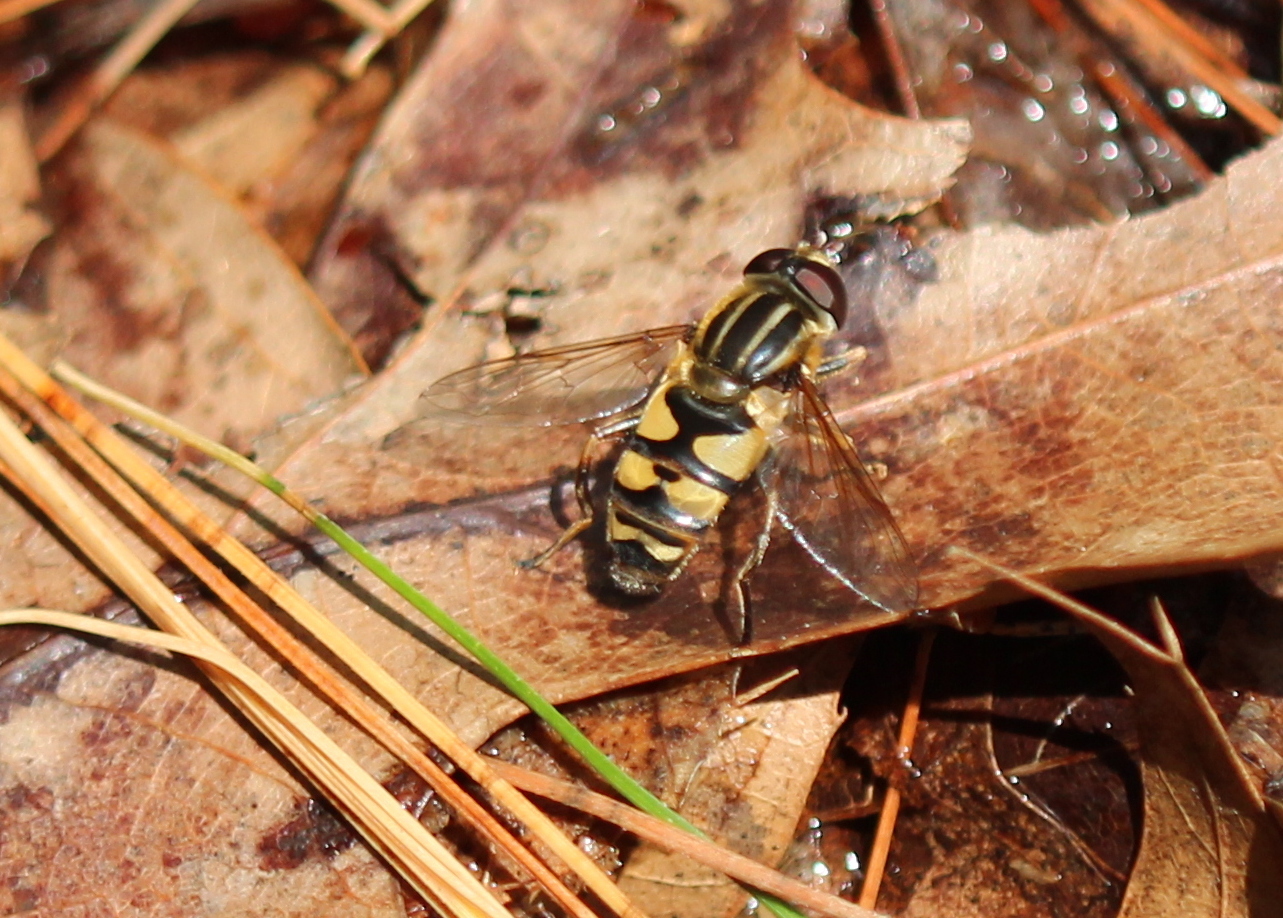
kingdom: Animalia
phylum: Arthropoda
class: Insecta
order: Diptera
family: Syrphidae
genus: Helophilus
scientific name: Helophilus fasciatus
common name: Narrow-headed marsh fly
